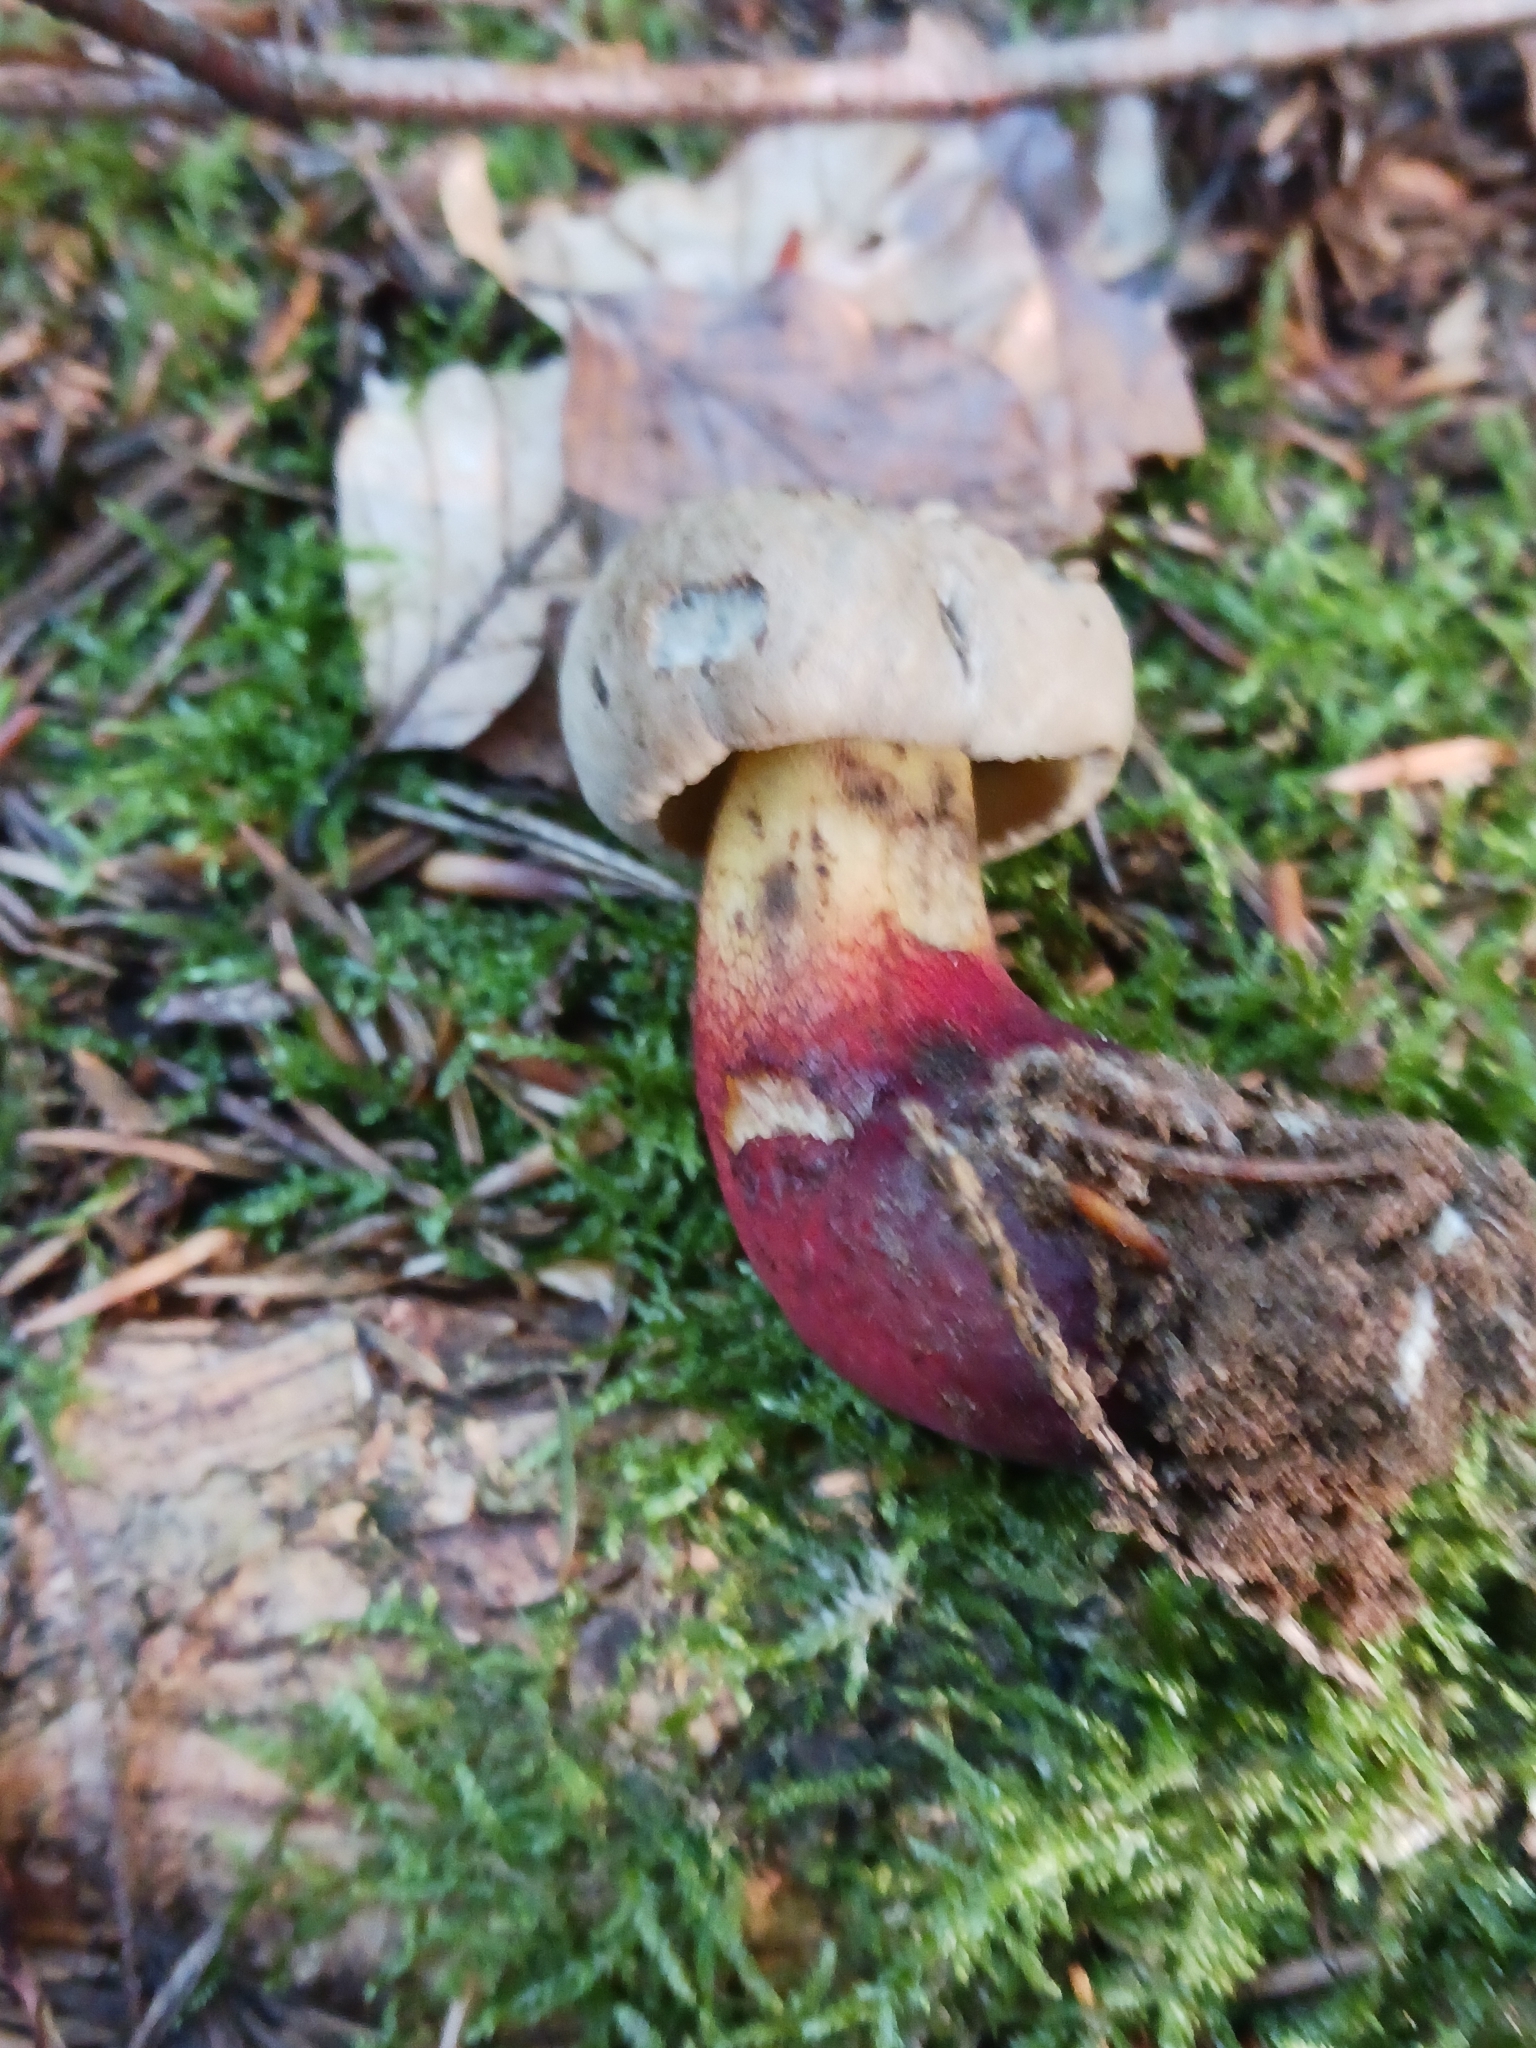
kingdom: Fungi
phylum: Basidiomycota
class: Agaricomycetes
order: Boletales
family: Boletaceae
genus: Caloboletus
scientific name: Caloboletus calopus
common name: Bitter beech bolete
